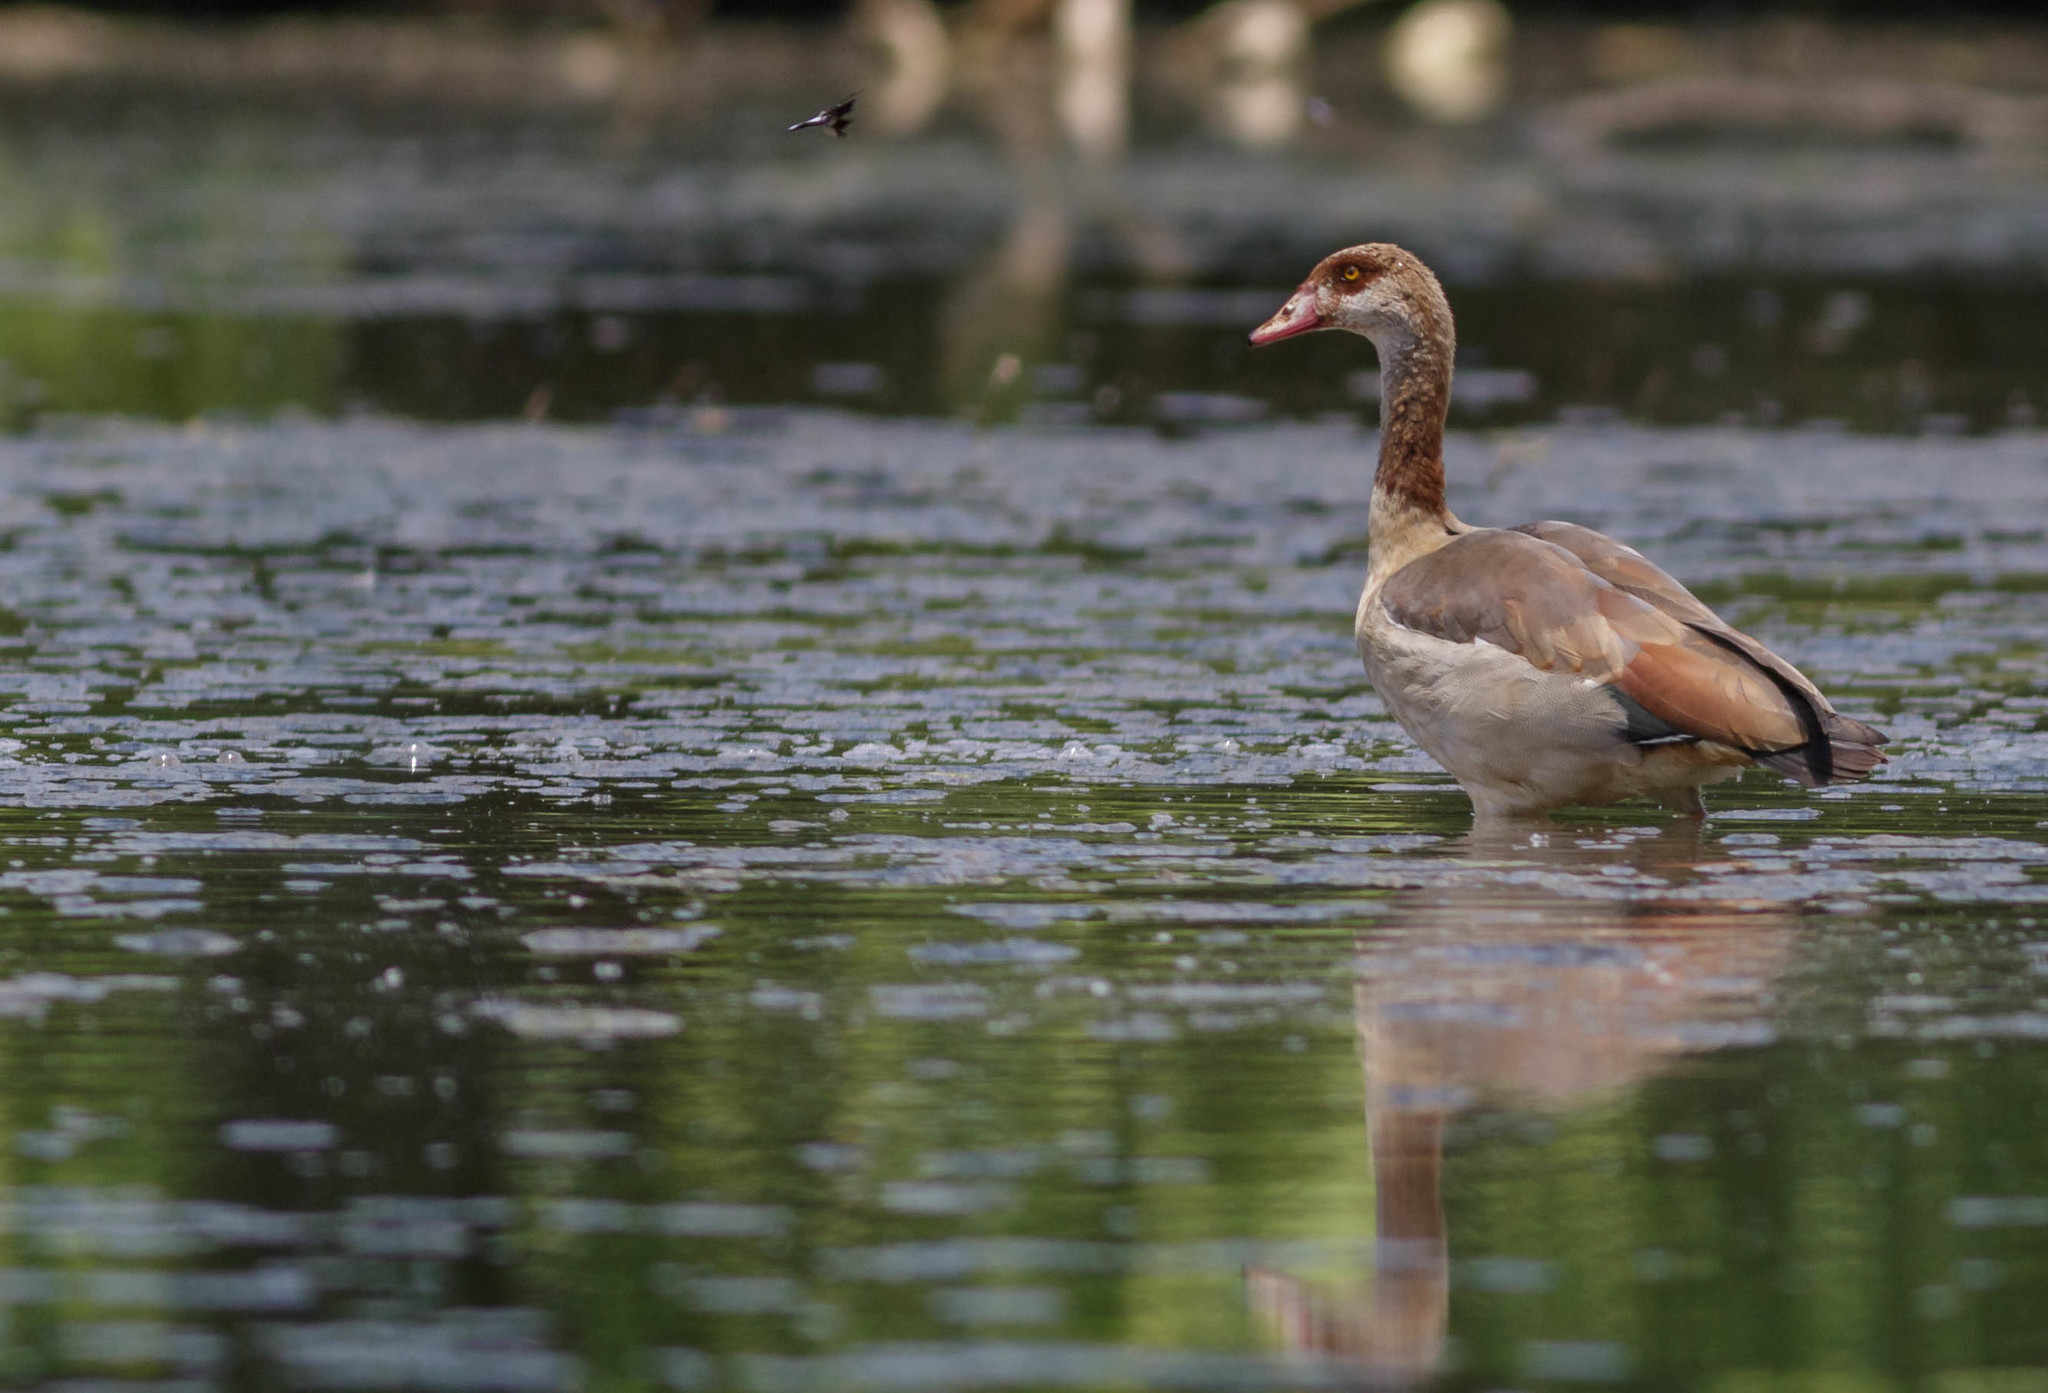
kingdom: Animalia
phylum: Chordata
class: Aves
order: Anseriformes
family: Anatidae
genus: Alopochen
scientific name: Alopochen aegyptiaca
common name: Egyptian goose
